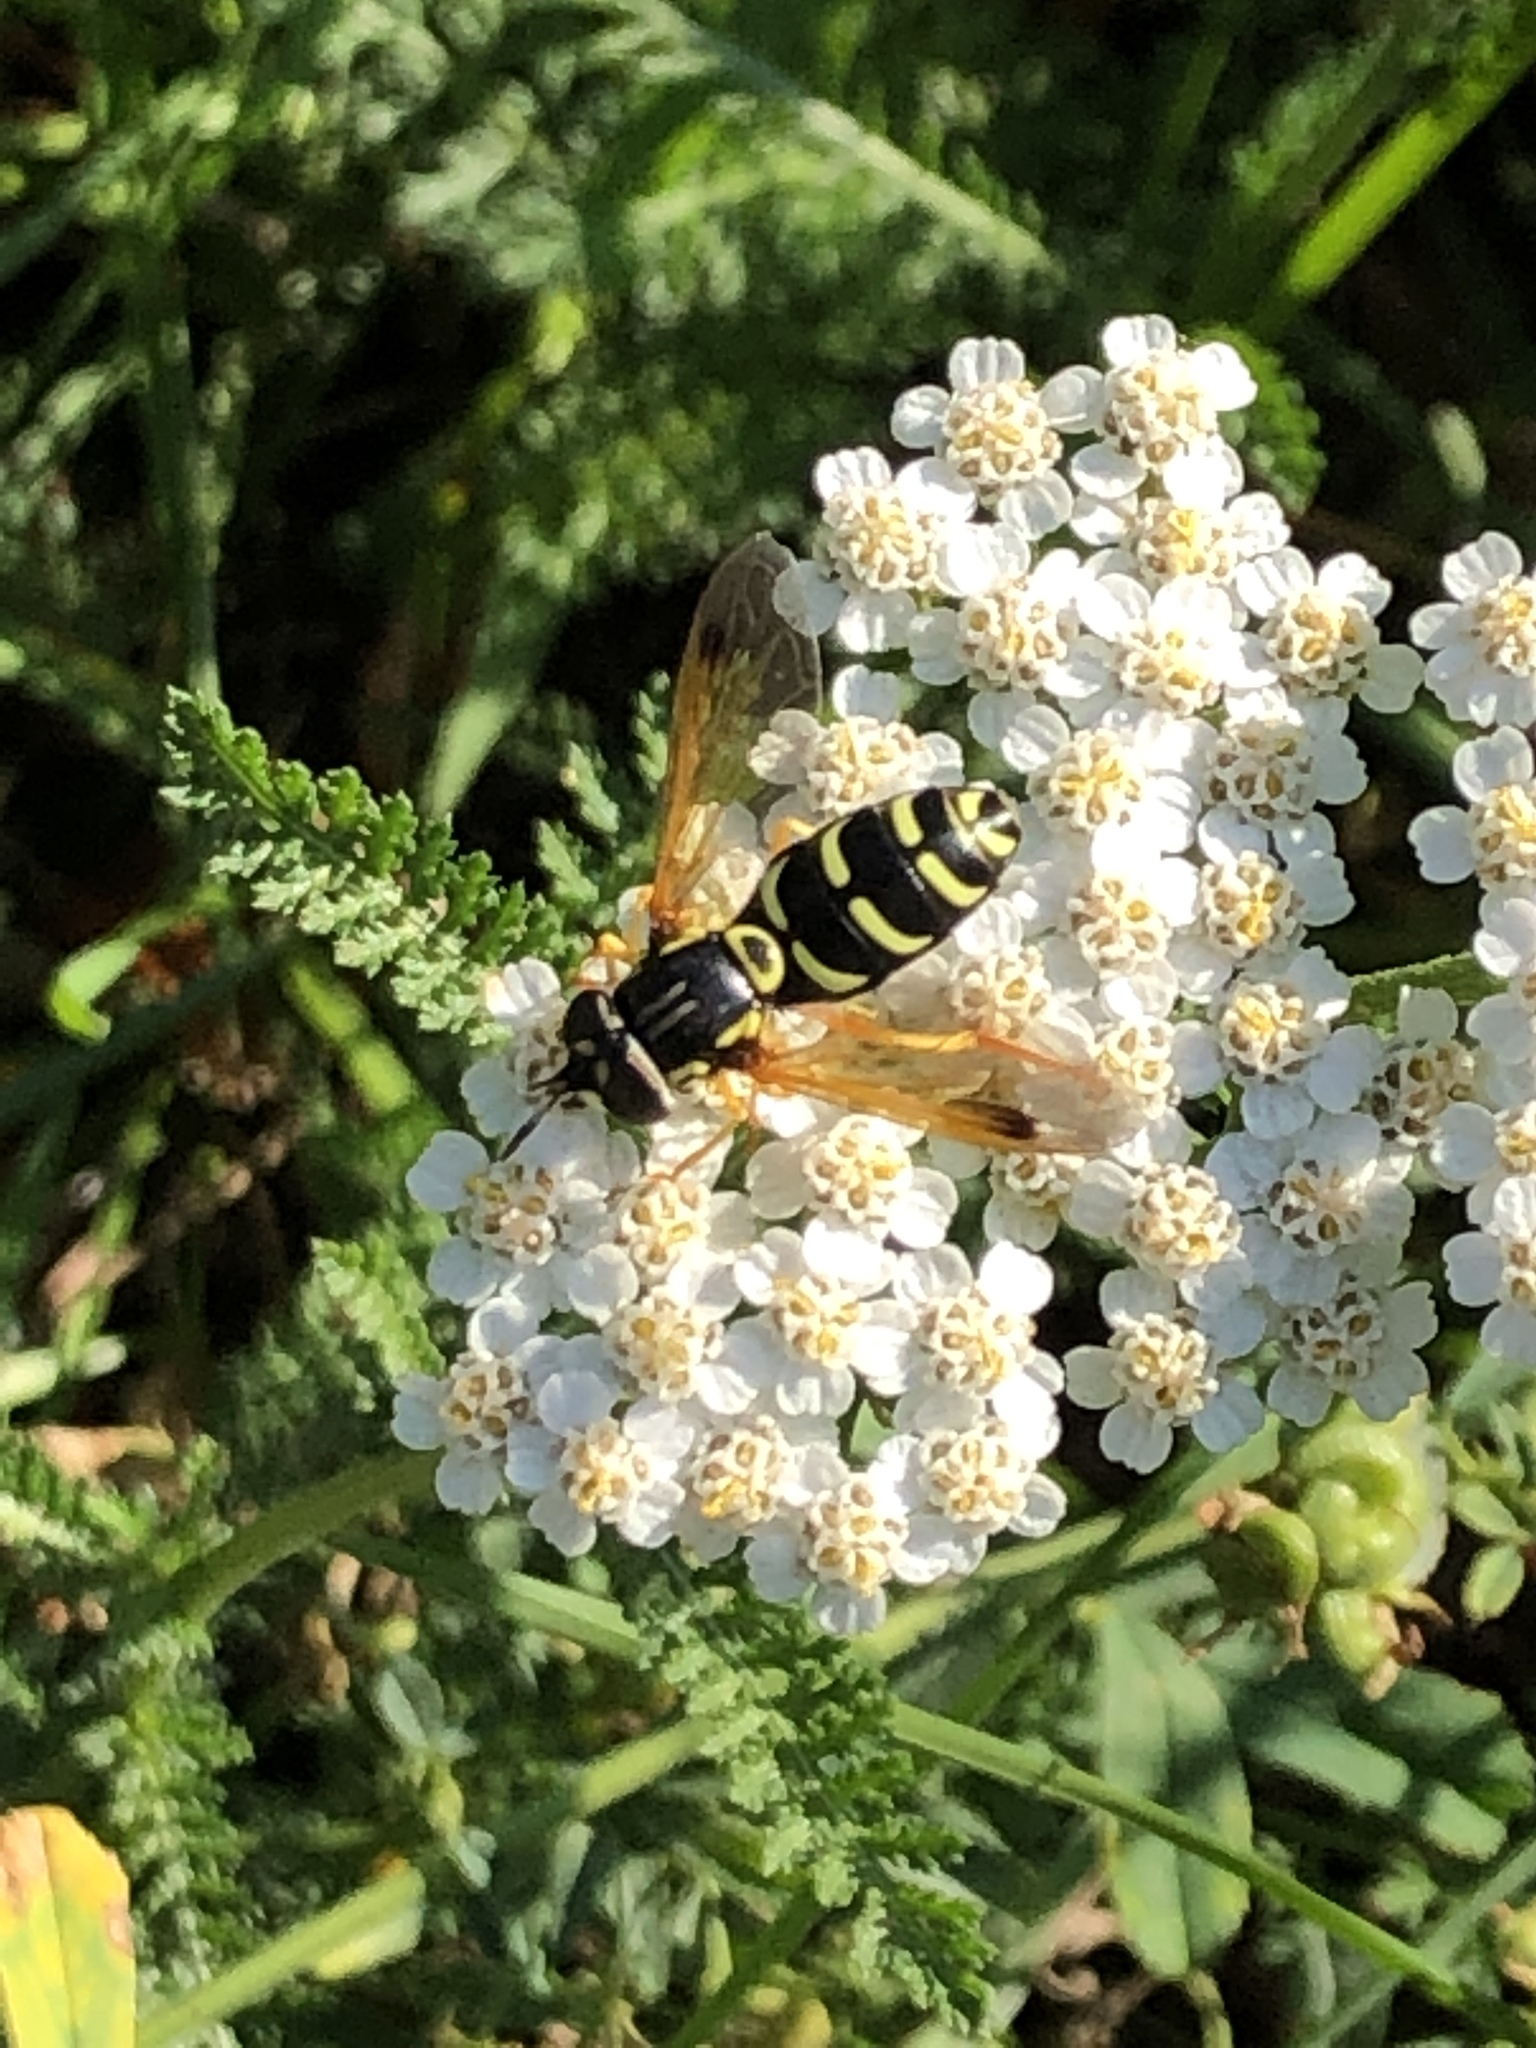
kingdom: Animalia
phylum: Arthropoda
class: Insecta
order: Diptera
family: Syrphidae
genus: Chrysotoxum
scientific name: Chrysotoxum festivum
